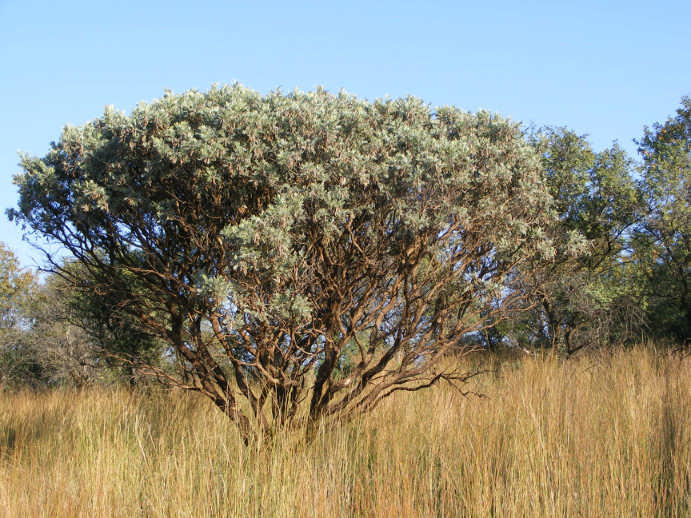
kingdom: Plantae
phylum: Tracheophyta
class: Magnoliopsida
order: Fabales
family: Fabaceae
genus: Mundulea
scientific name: Mundulea sericea
